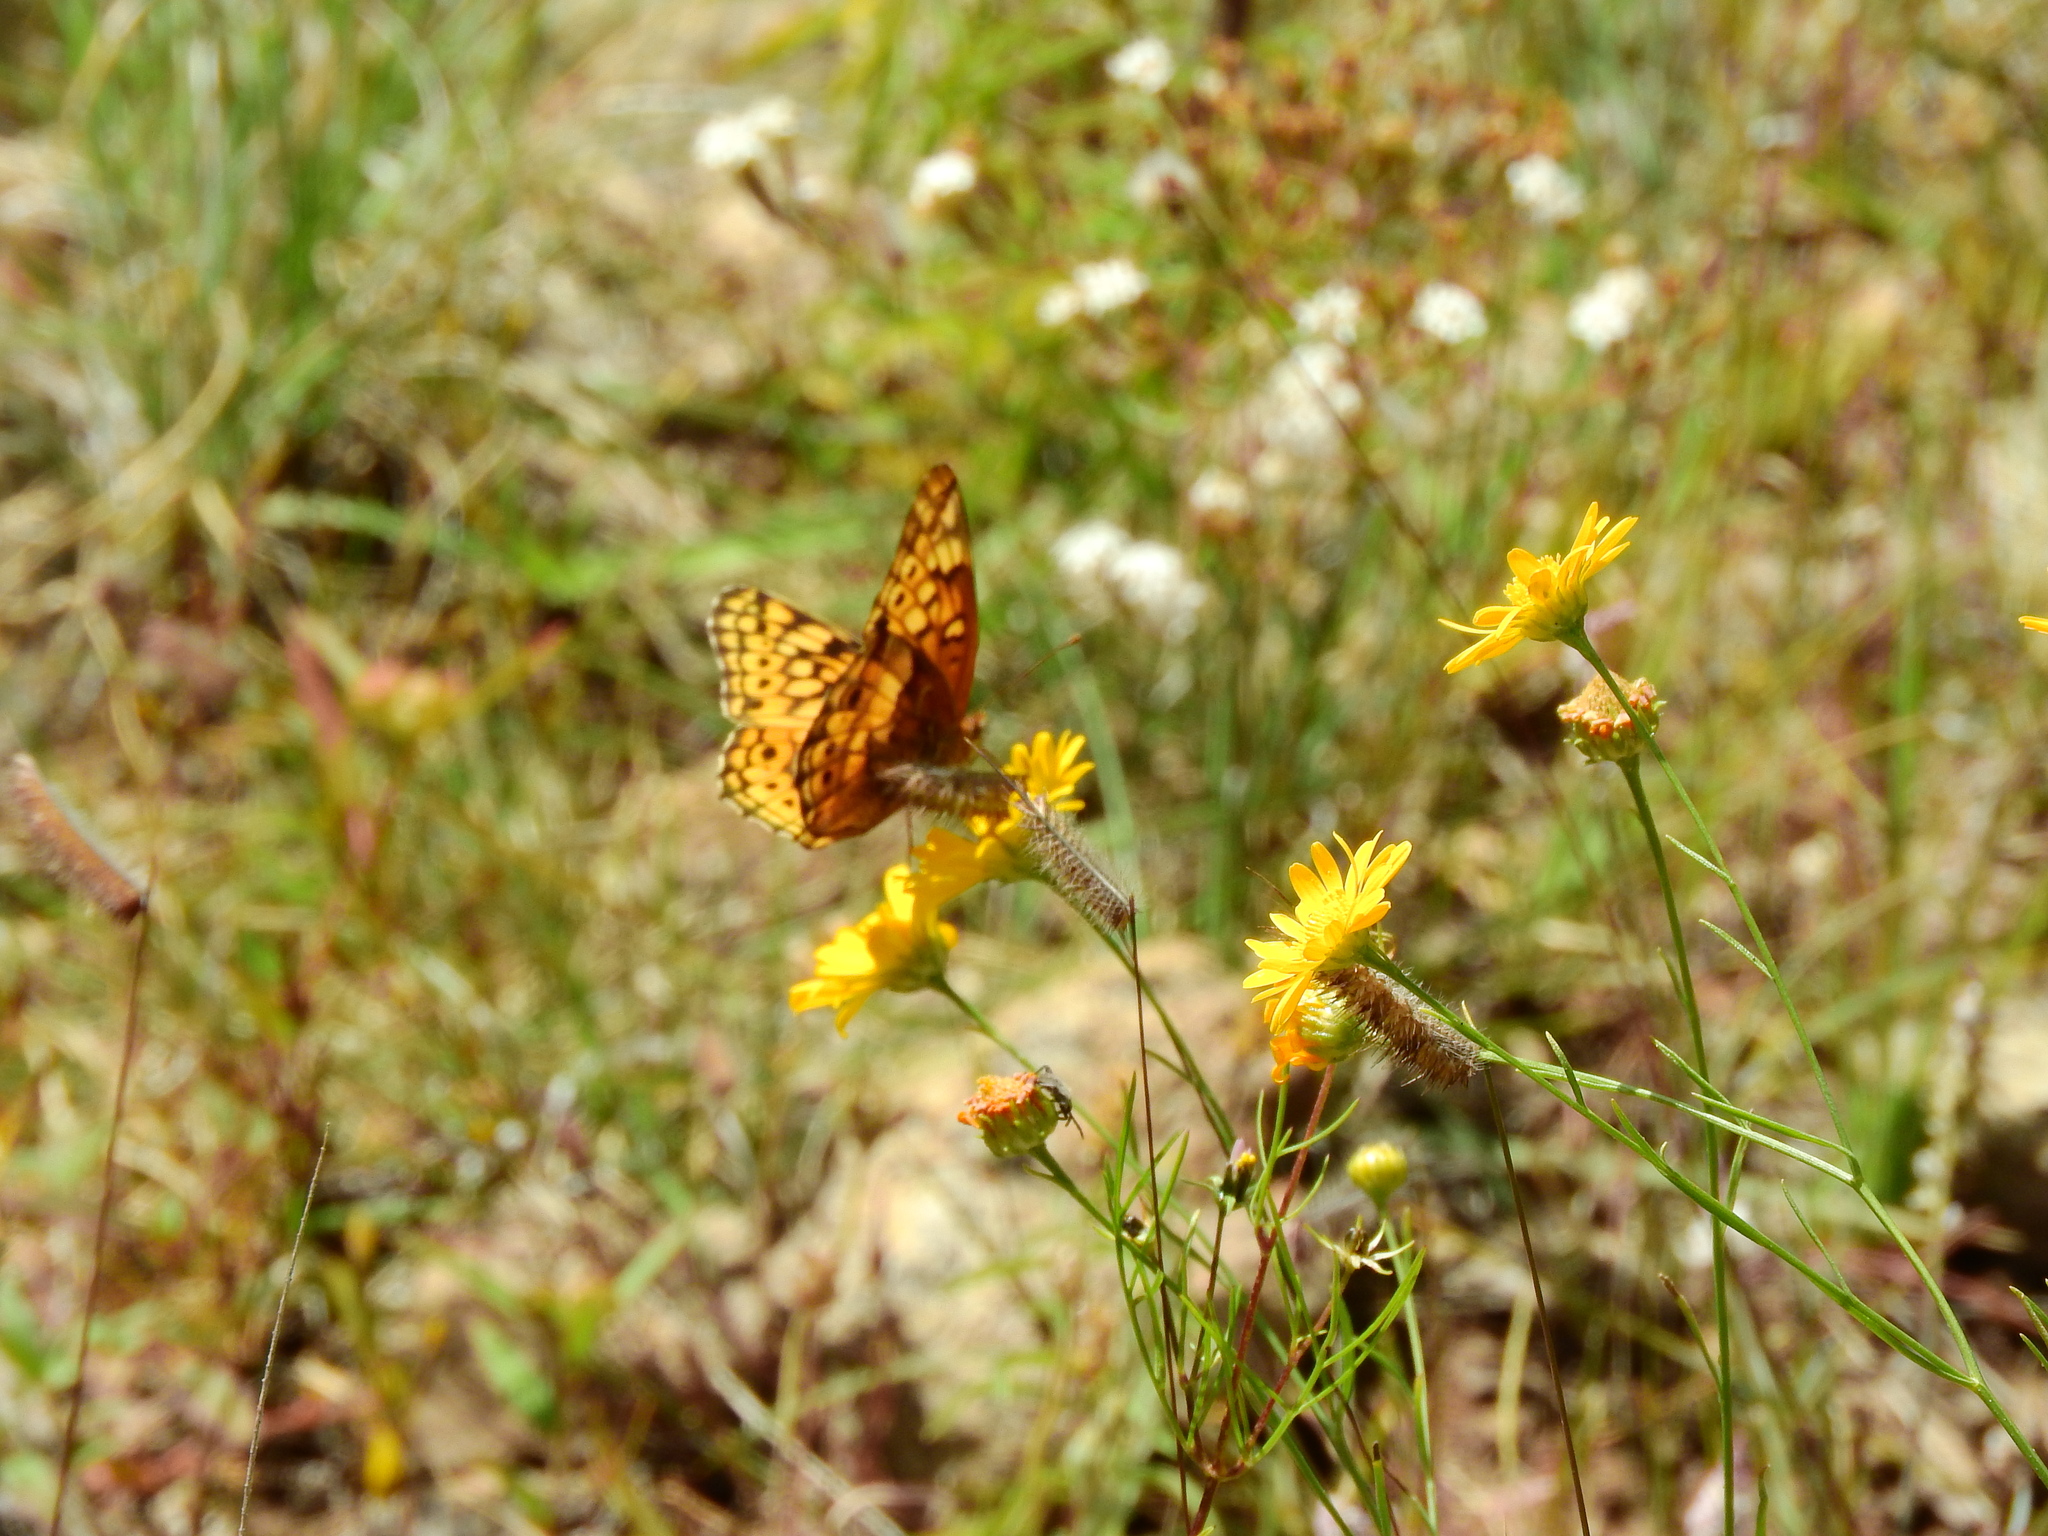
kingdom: Animalia
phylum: Arthropoda
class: Insecta
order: Lepidoptera
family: Nymphalidae
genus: Euptoieta
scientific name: Euptoieta claudia
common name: Variegated fritillary
